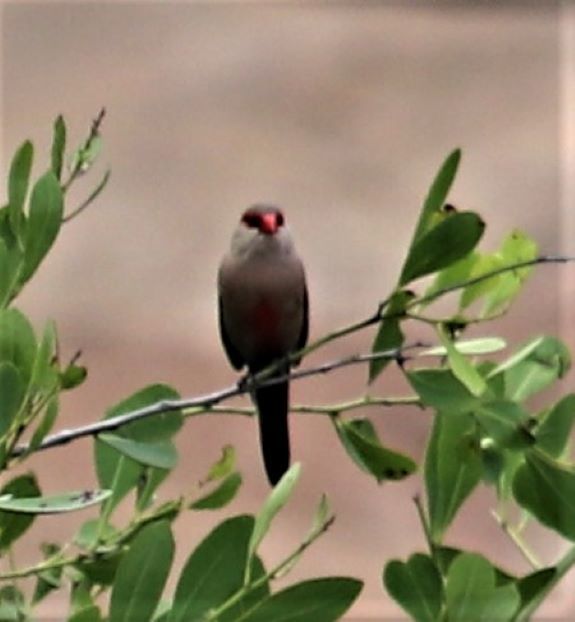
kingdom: Animalia
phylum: Chordata
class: Aves
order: Passeriformes
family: Estrildidae
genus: Estrilda
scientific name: Estrilda astrild
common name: Common waxbill
